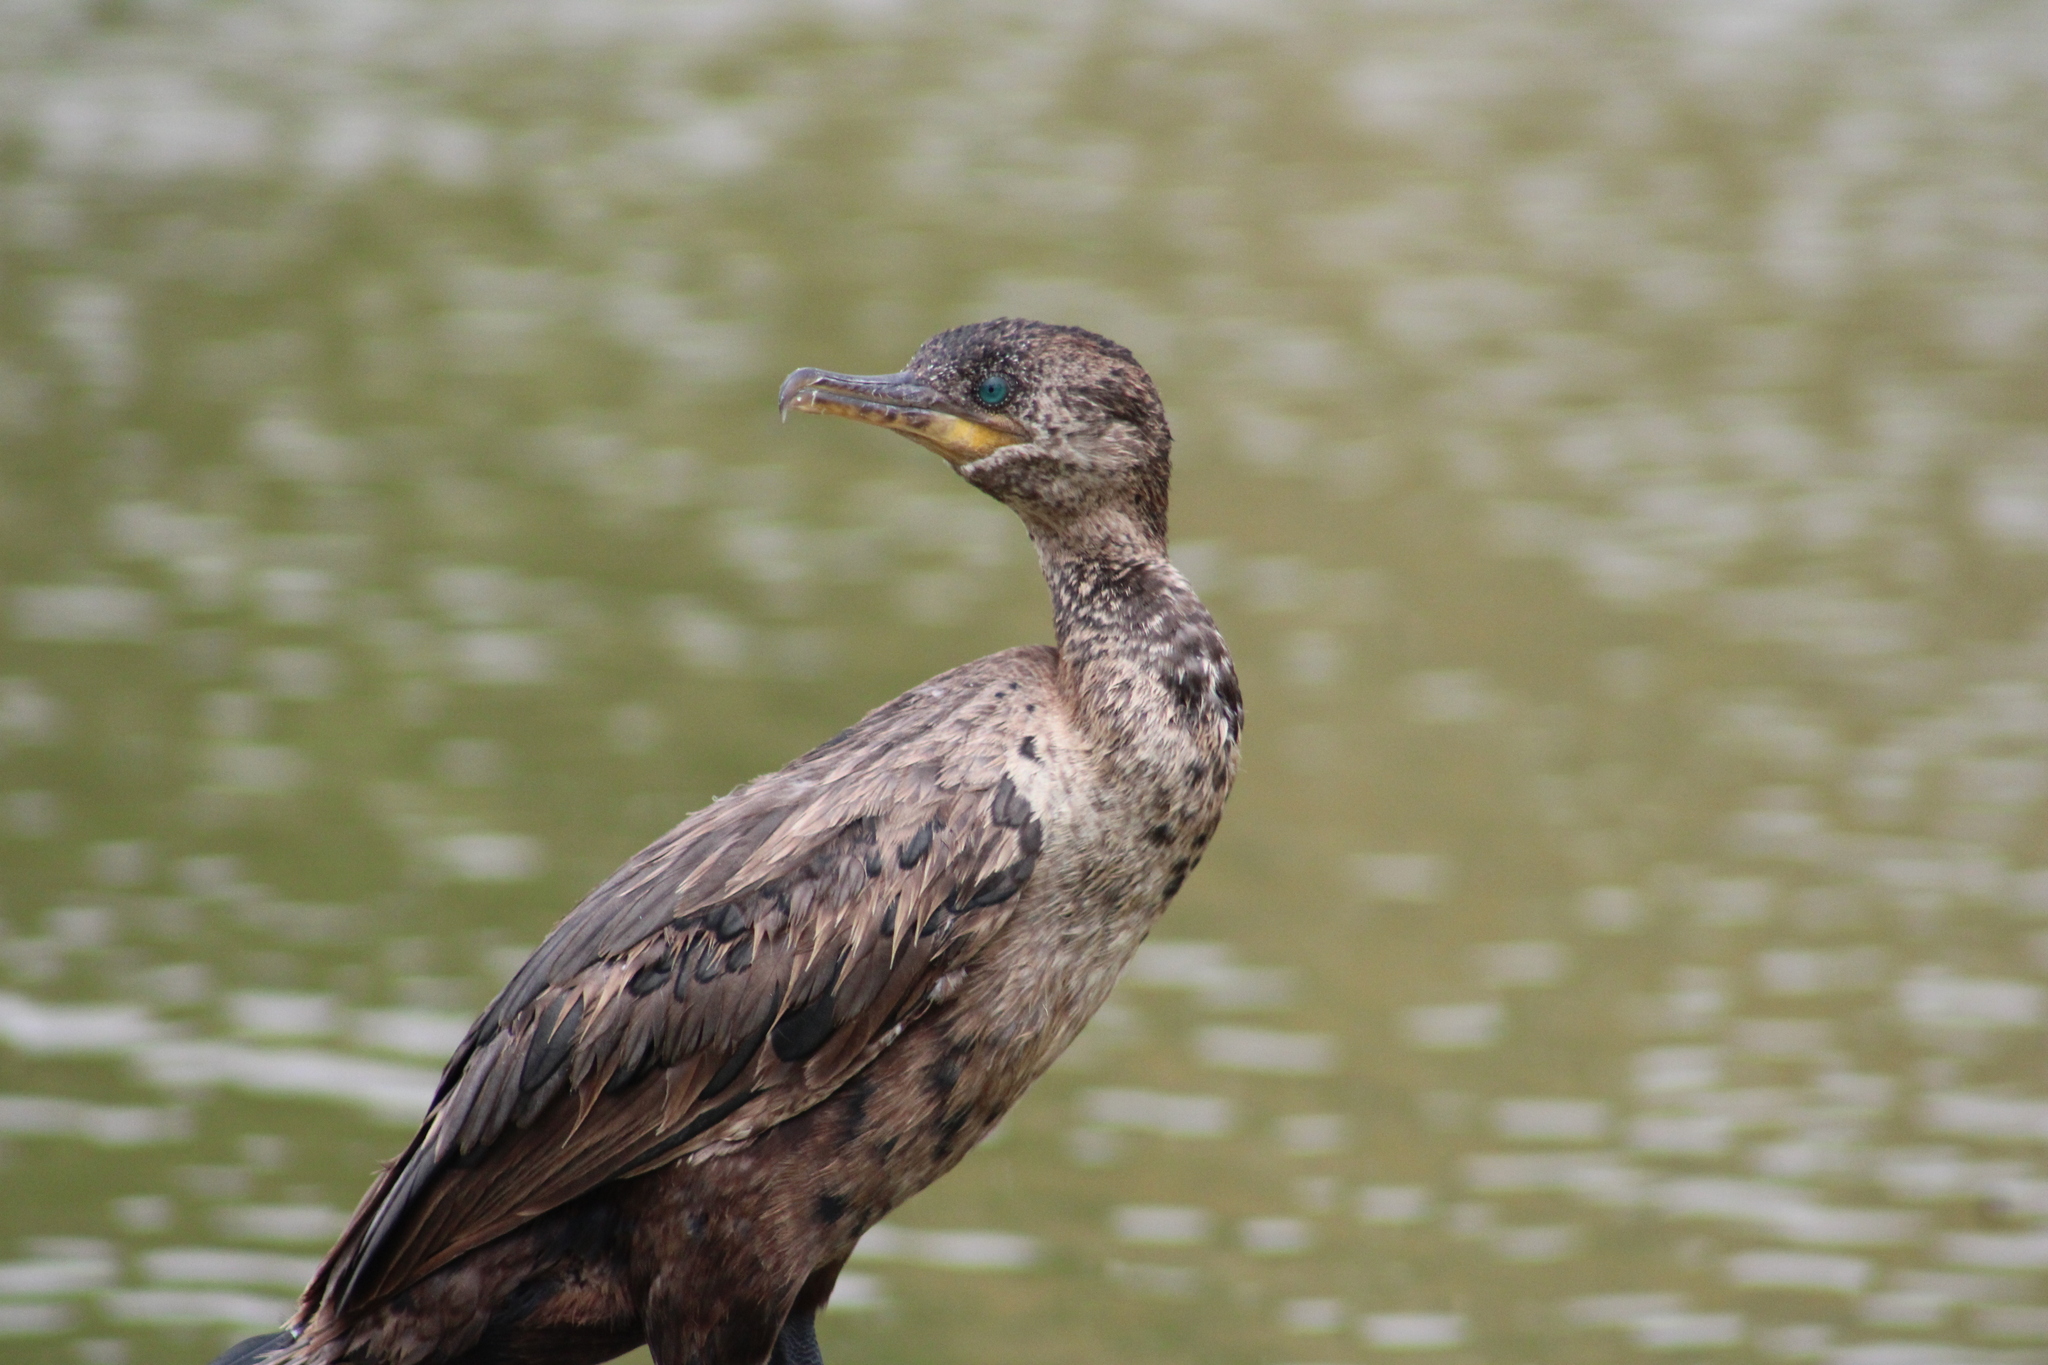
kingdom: Animalia
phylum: Chordata
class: Aves
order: Suliformes
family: Phalacrocoracidae
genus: Phalacrocorax
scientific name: Phalacrocorax brasilianus
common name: Neotropic cormorant
